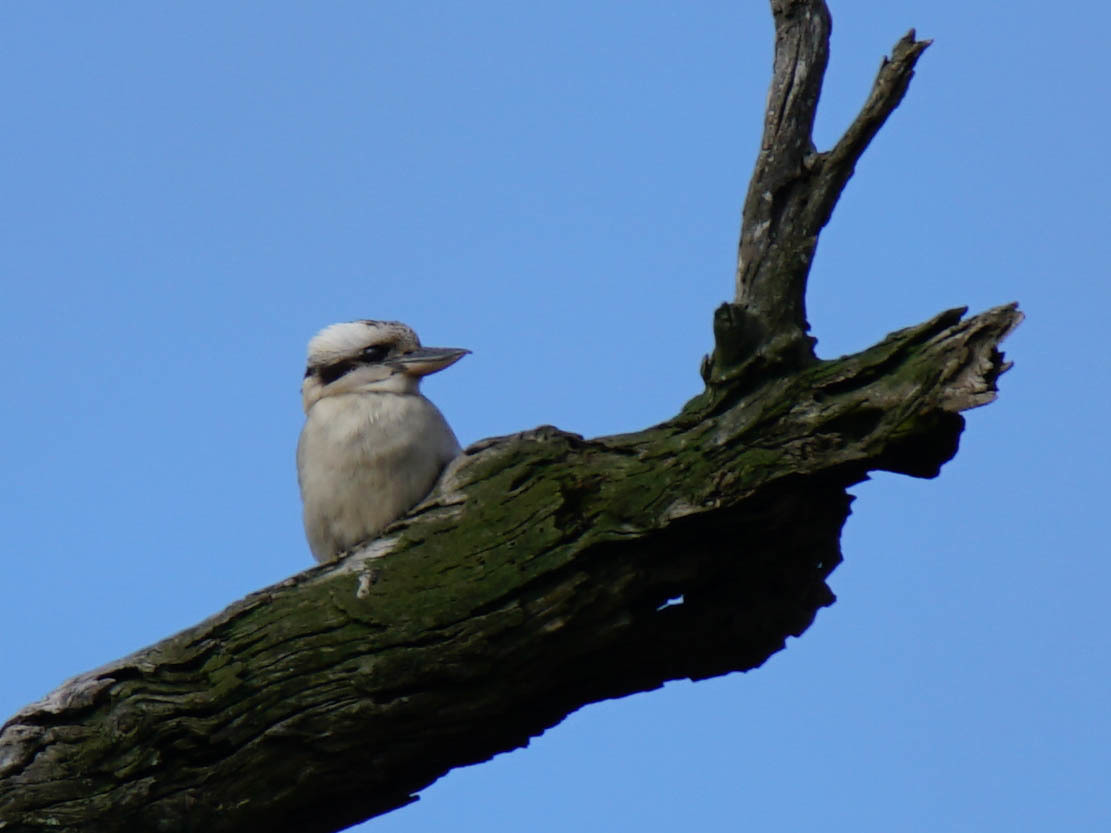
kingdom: Animalia
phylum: Chordata
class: Aves
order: Coraciiformes
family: Alcedinidae
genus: Dacelo
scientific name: Dacelo novaeguineae
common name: Laughing kookaburra
